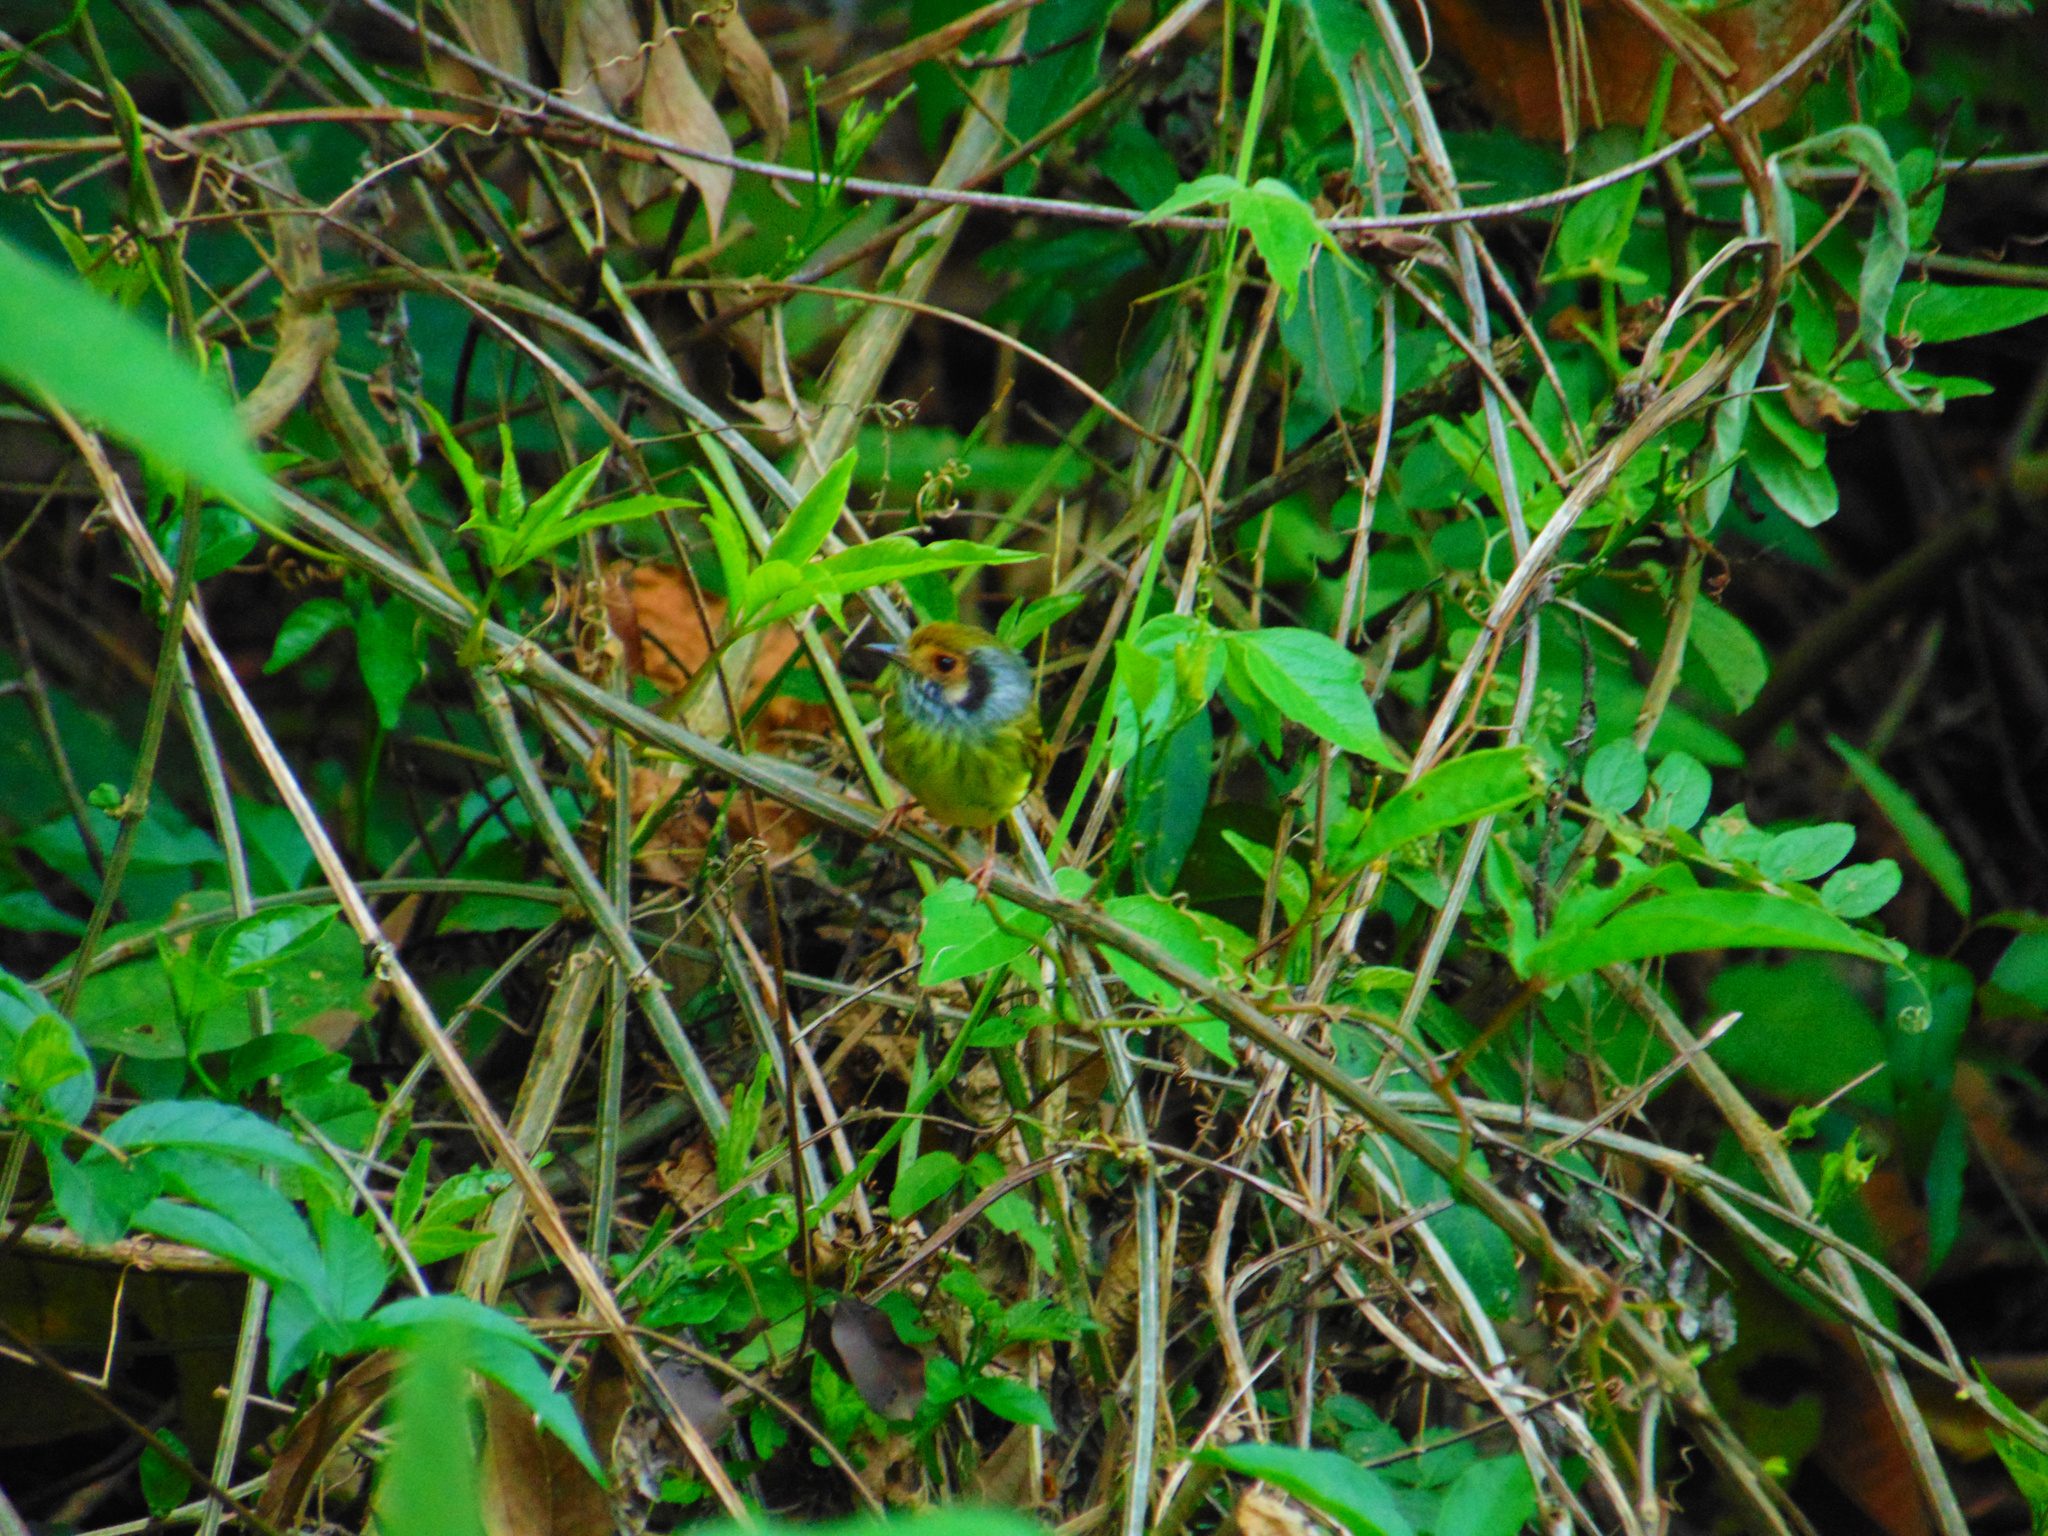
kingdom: Animalia
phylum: Chordata
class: Aves
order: Passeriformes
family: Tyrannidae
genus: Myiornis
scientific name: Myiornis auricularis
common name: Eared pygmy tyrant
